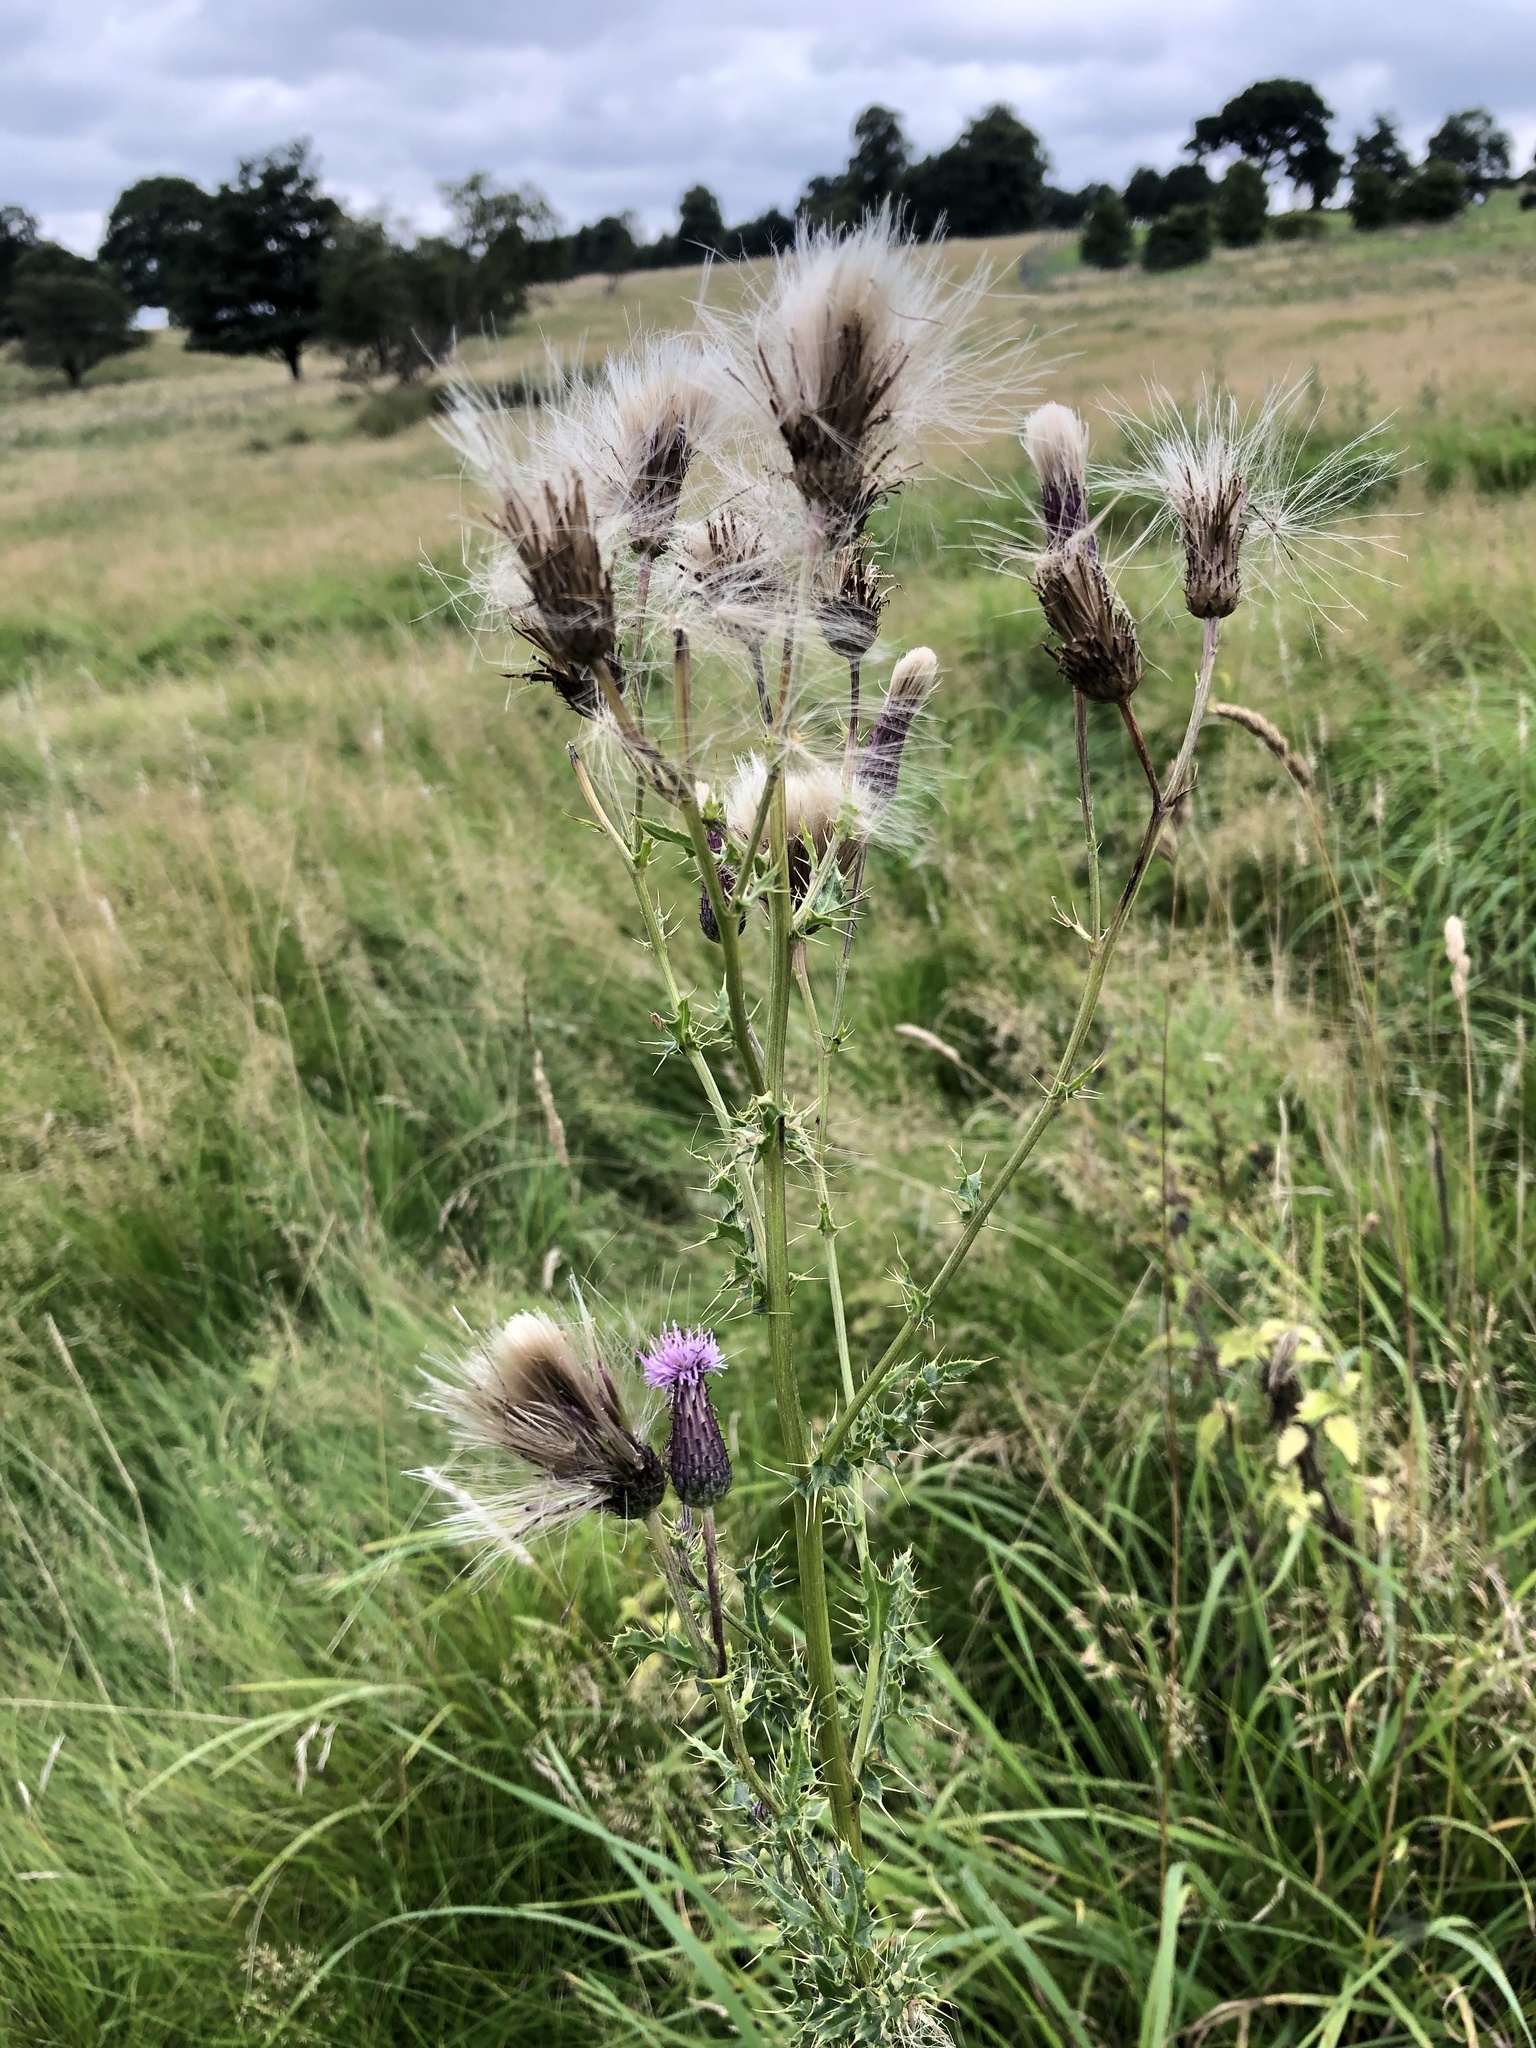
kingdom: Plantae
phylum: Tracheophyta
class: Magnoliopsida
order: Asterales
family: Asteraceae
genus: Cirsium
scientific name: Cirsium arvense
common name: Creeping thistle
